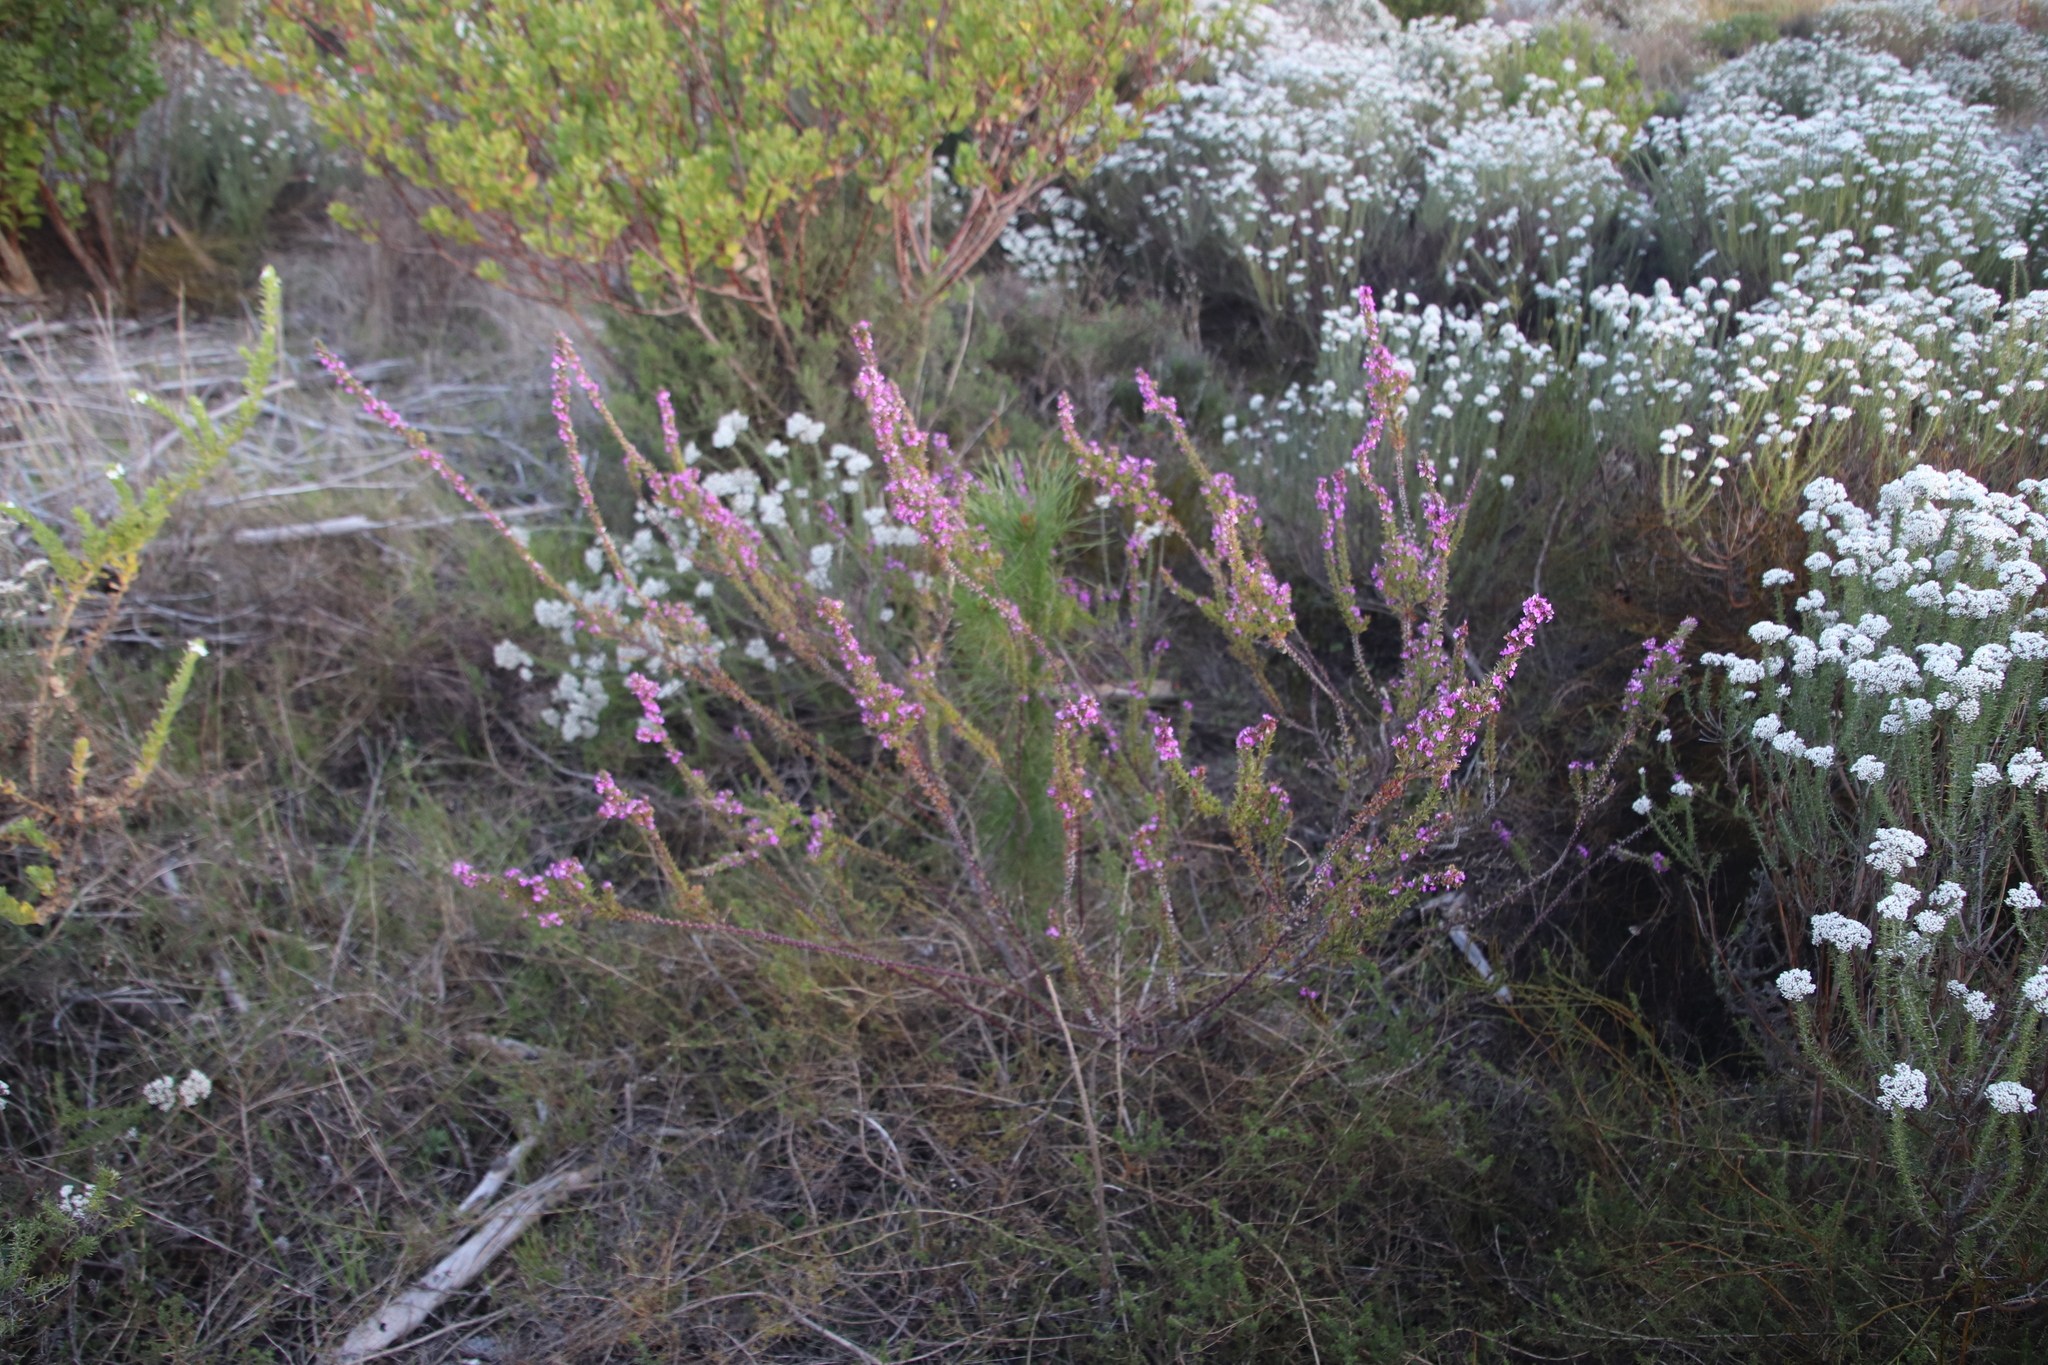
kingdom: Plantae
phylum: Tracheophyta
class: Magnoliopsida
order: Fabales
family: Polygalaceae
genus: Muraltia
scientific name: Muraltia heisteria
